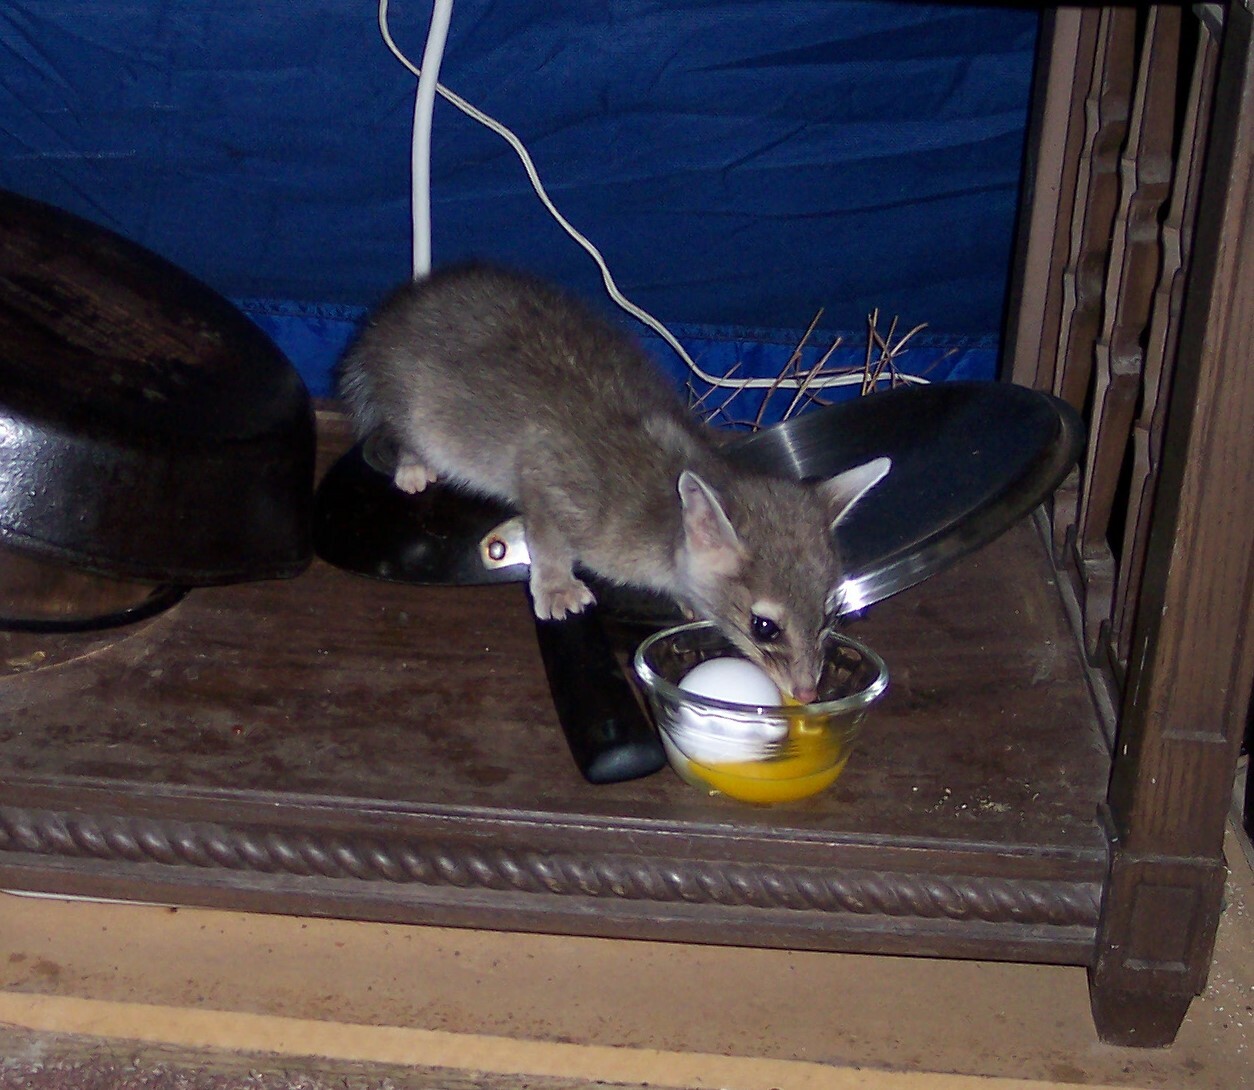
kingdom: Animalia
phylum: Chordata
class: Mammalia
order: Carnivora
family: Procyonidae
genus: Bassariscus
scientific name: Bassariscus astutus
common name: Ringtail
